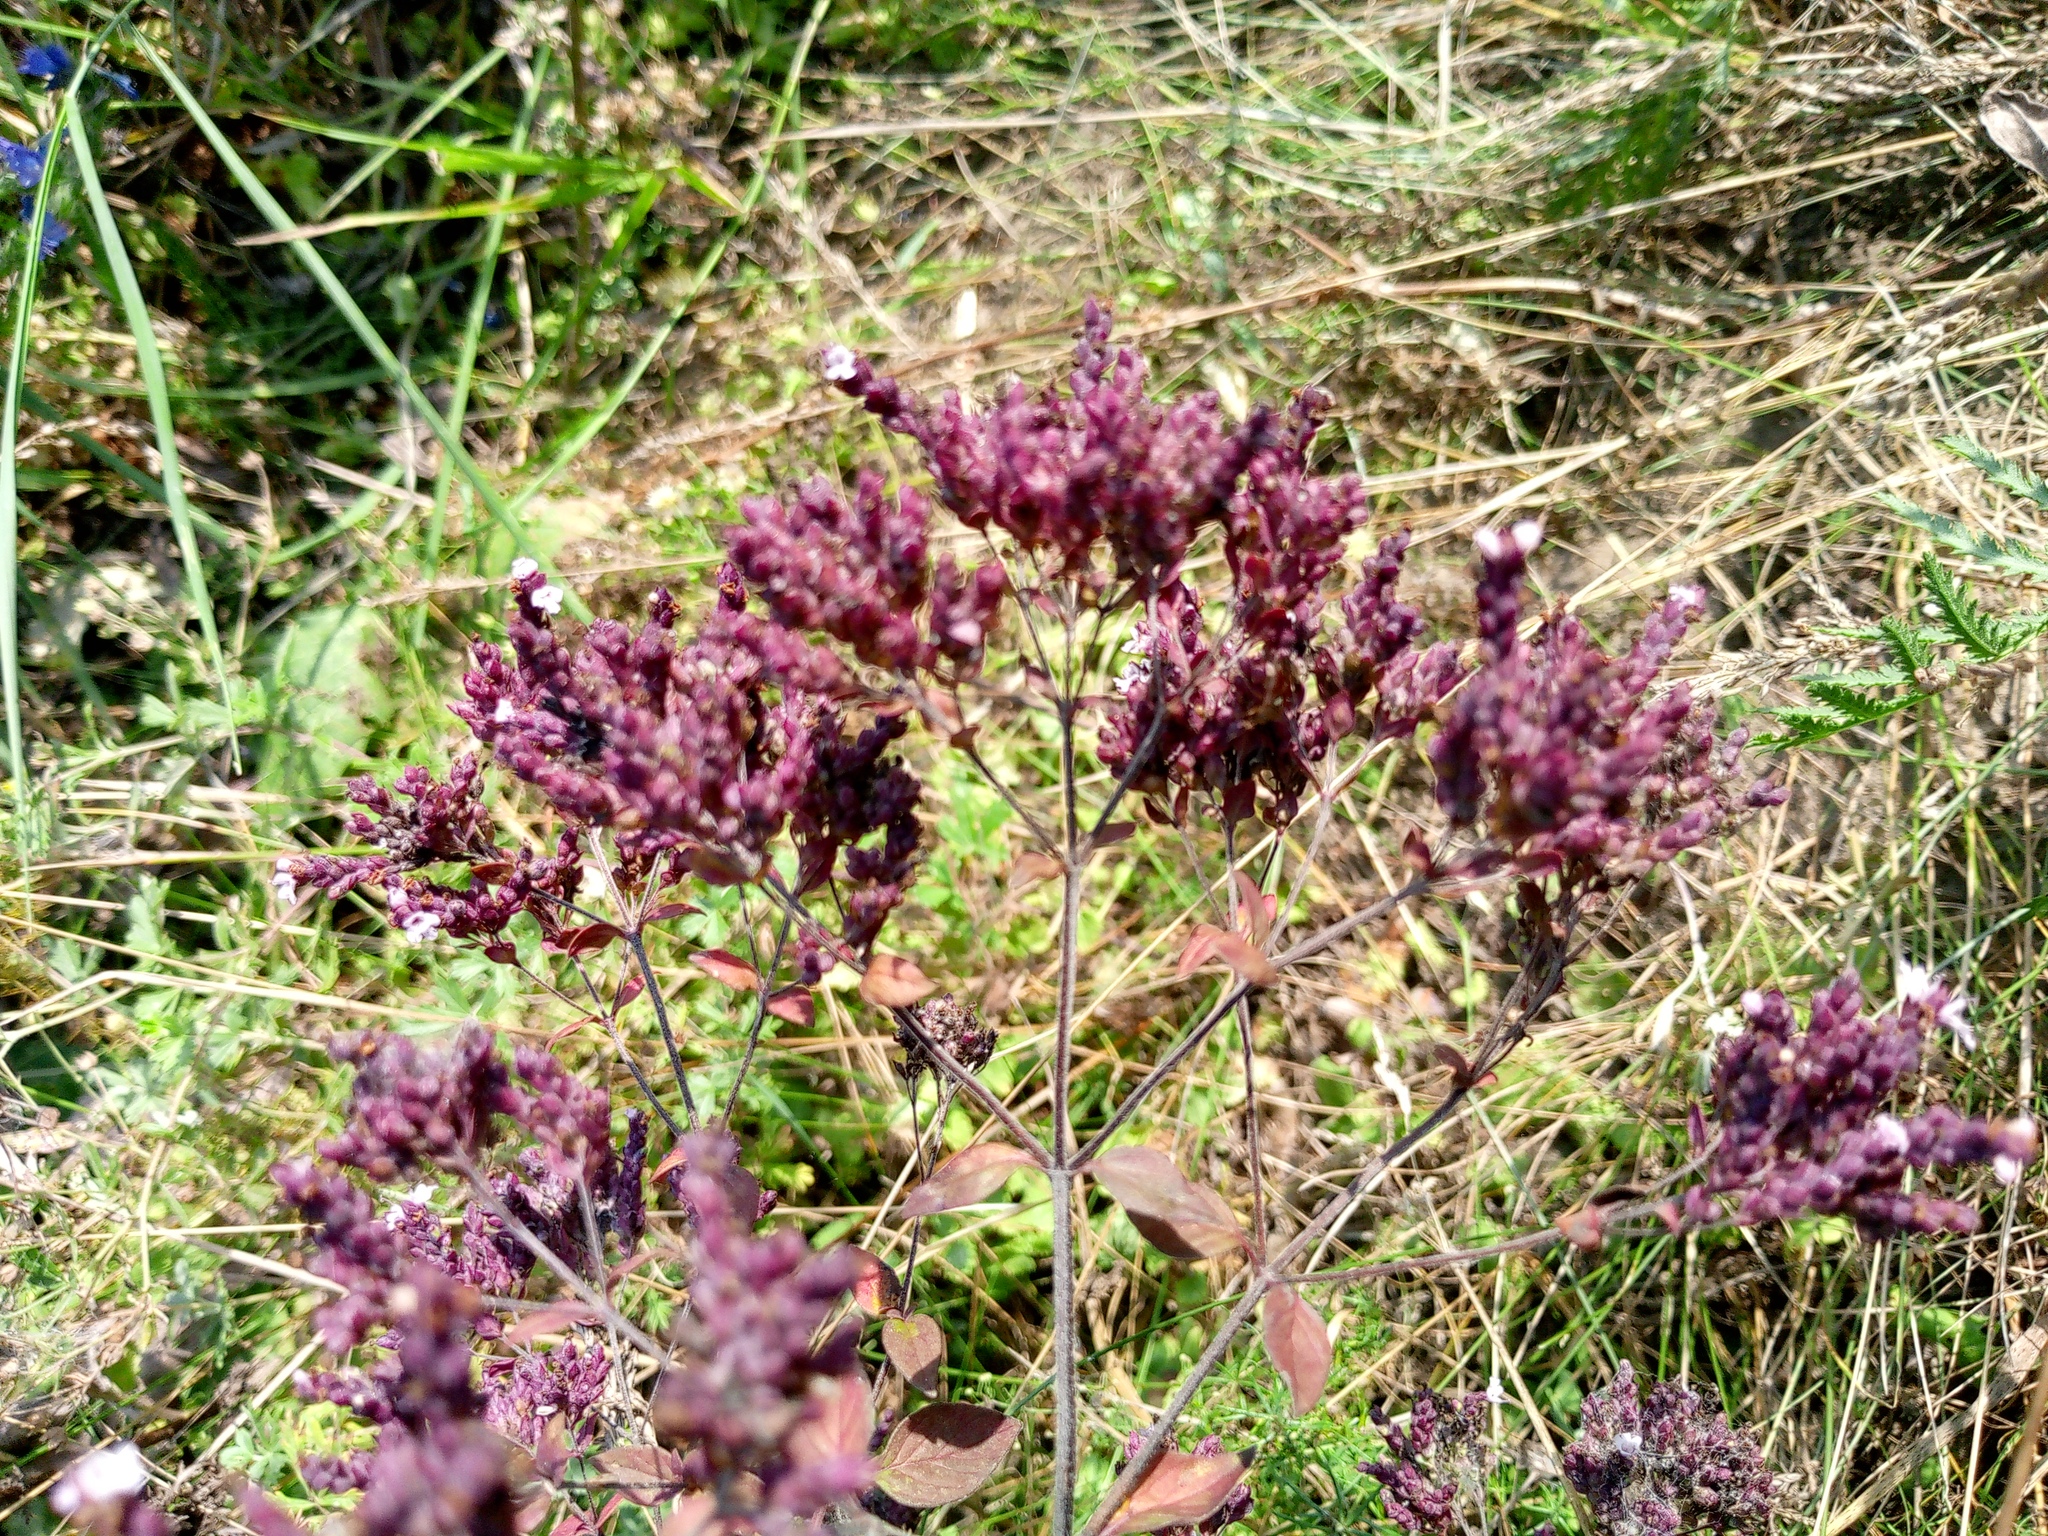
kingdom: Plantae
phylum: Tracheophyta
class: Magnoliopsida
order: Lamiales
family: Lamiaceae
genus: Origanum
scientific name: Origanum vulgare
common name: Wild marjoram
